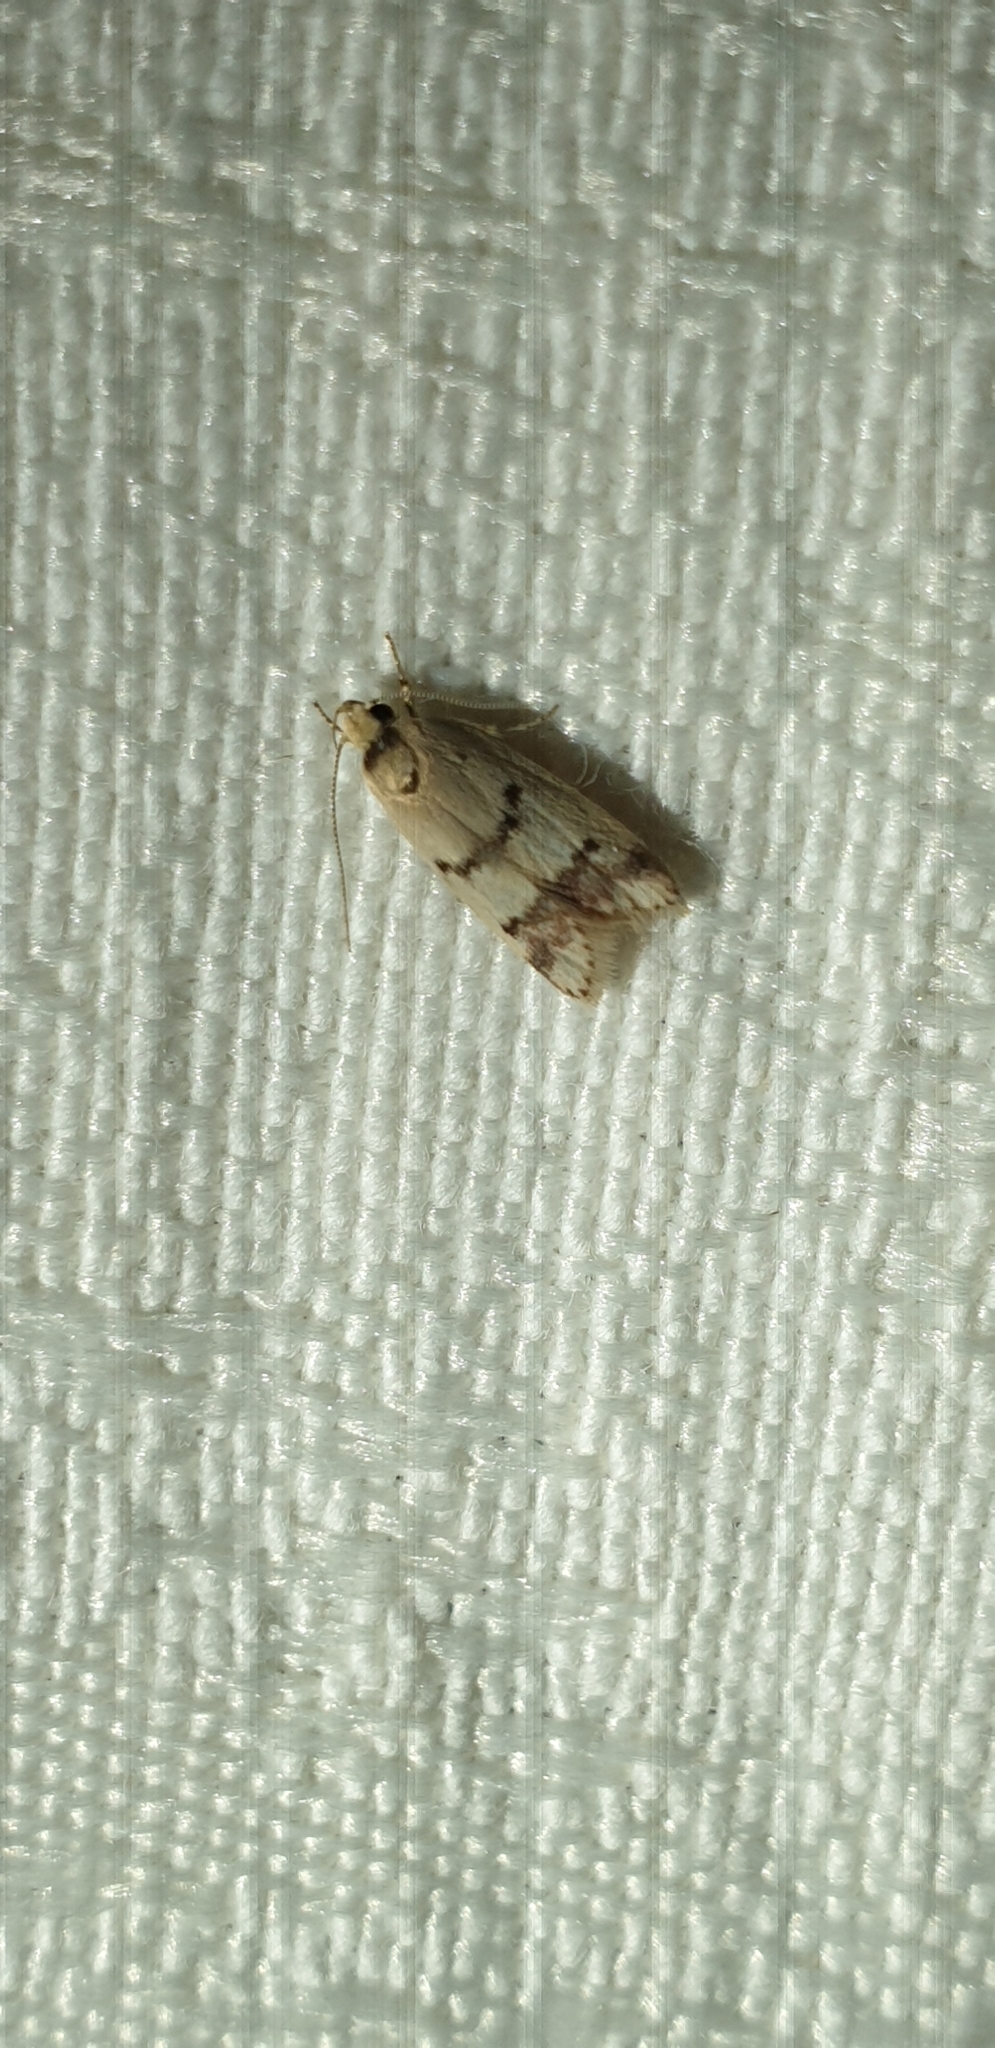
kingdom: Animalia
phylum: Arthropoda
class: Insecta
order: Lepidoptera
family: Oecophoridae
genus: Compsotropha
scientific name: Compsotropha strophiella
